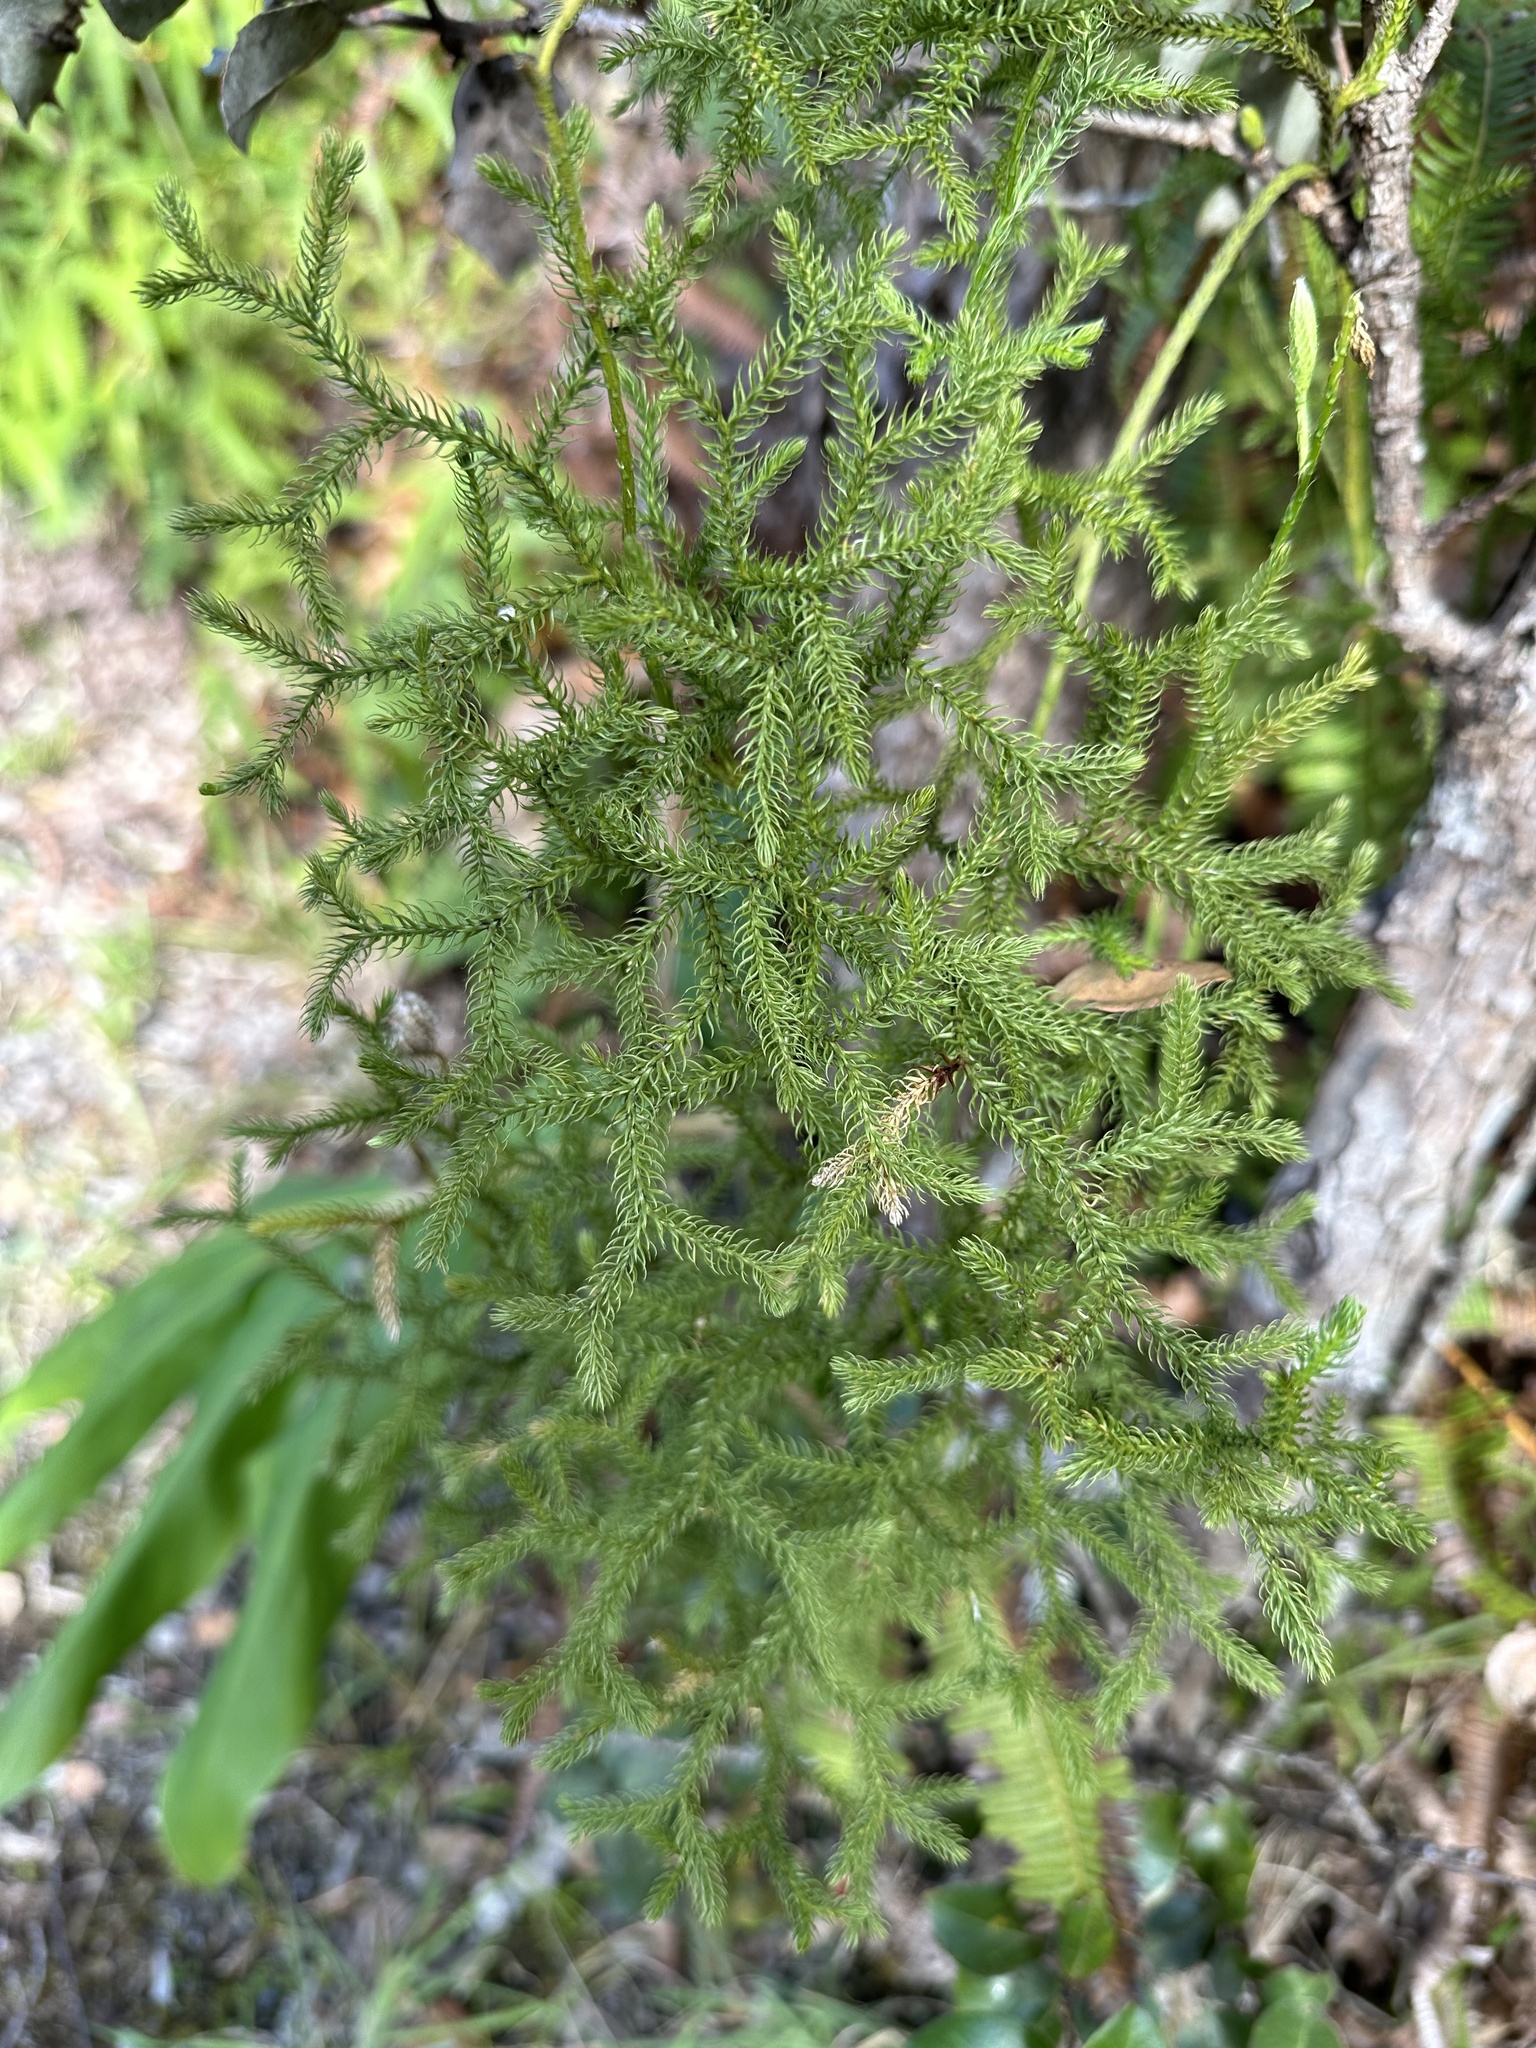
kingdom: Plantae
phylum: Tracheophyta
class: Lycopodiopsida
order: Lycopodiales
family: Lycopodiaceae
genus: Palhinhaea
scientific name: Palhinhaea cernua
